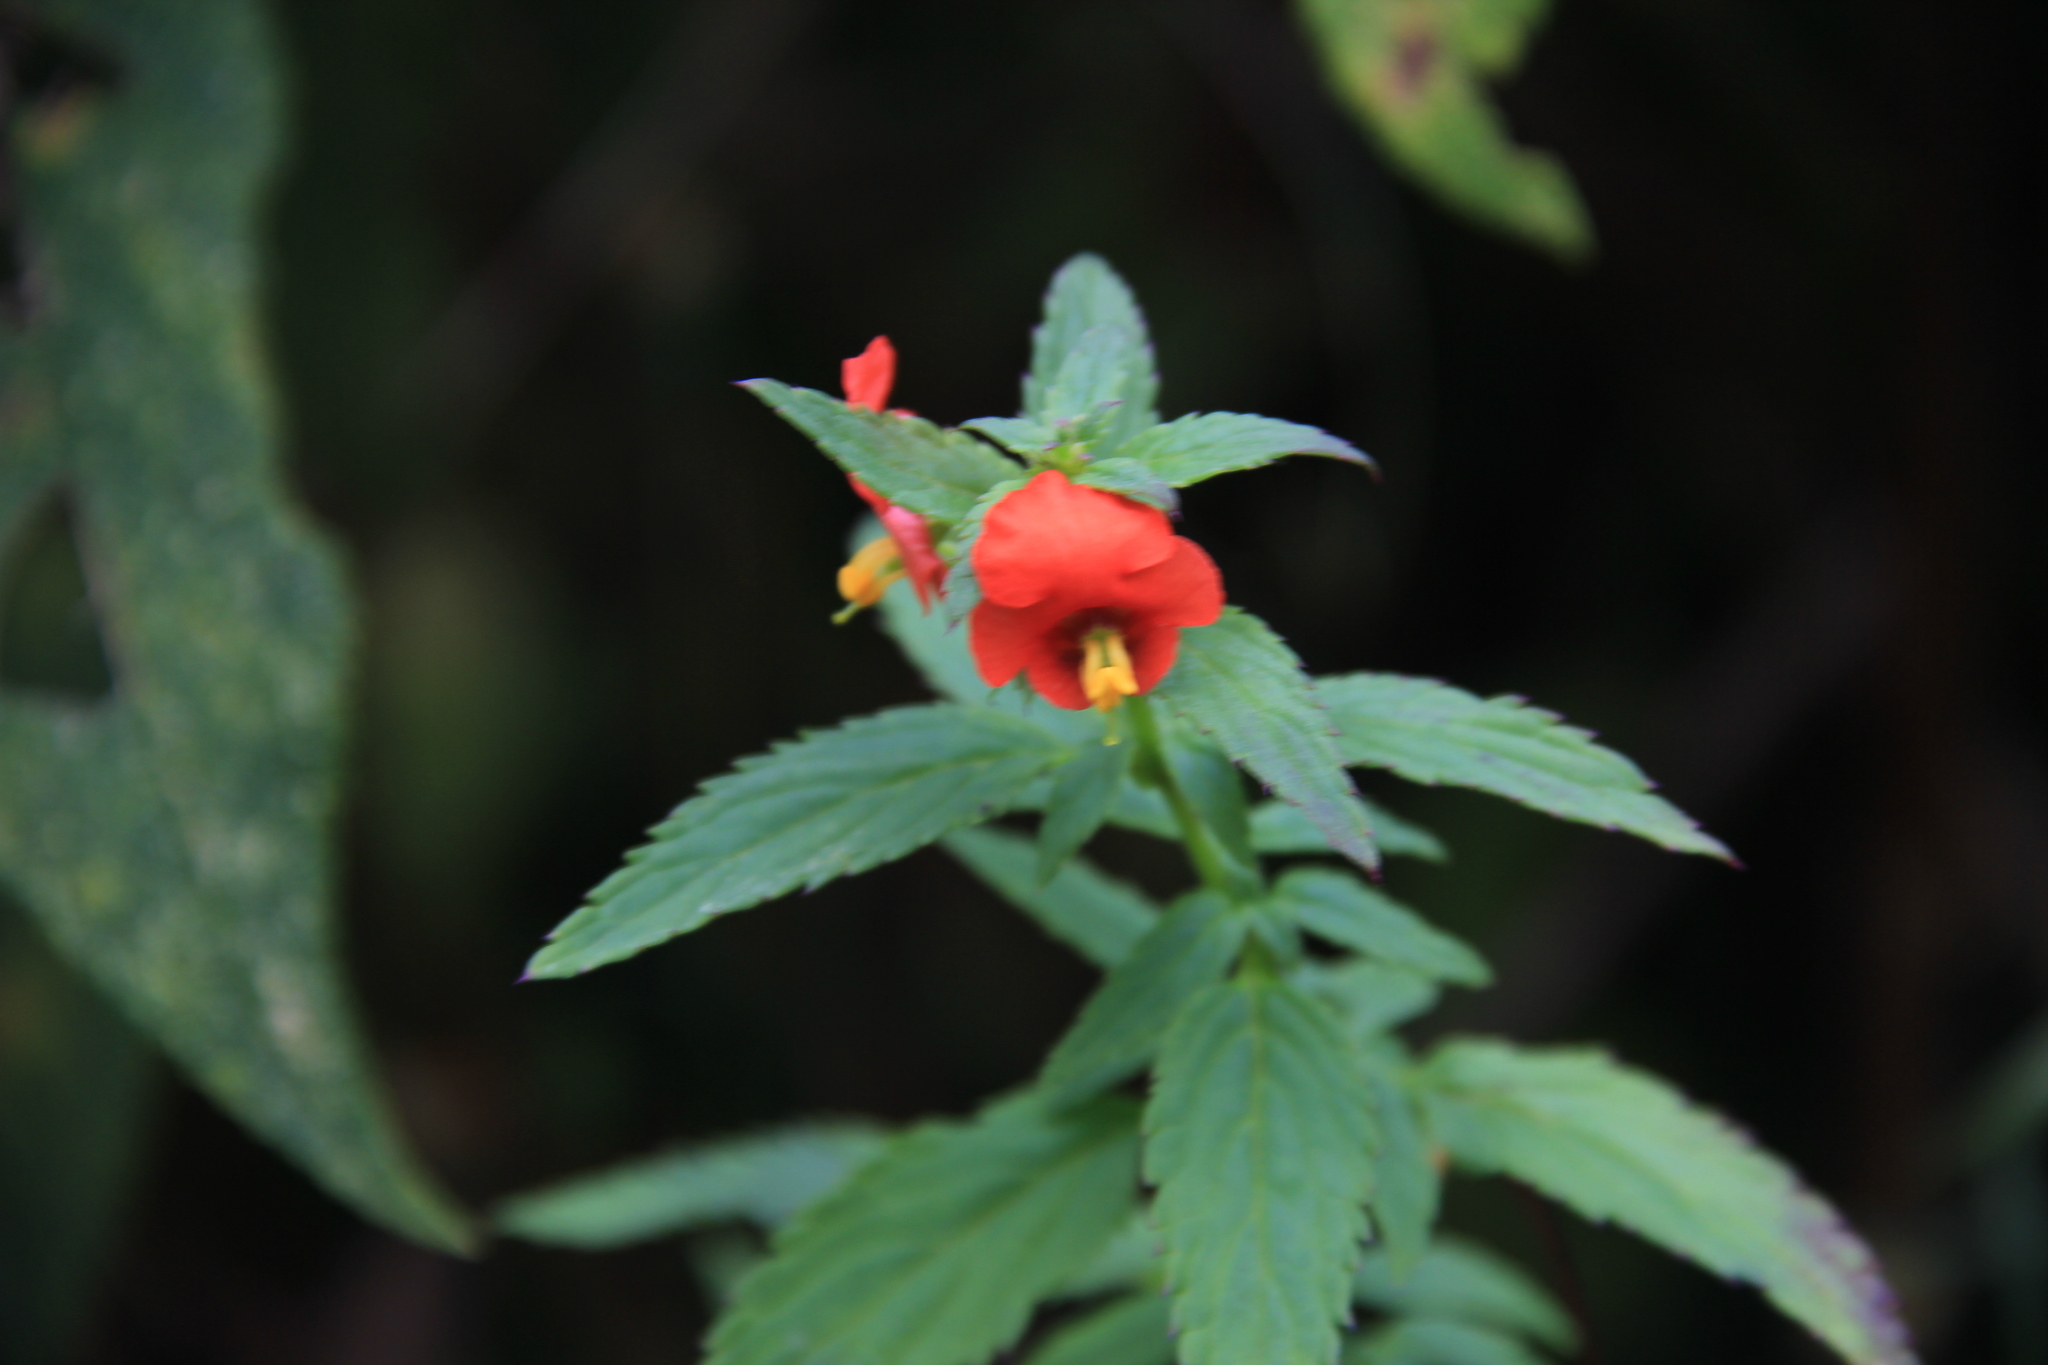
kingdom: Plantae
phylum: Tracheophyta
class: Magnoliopsida
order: Lamiales
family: Scrophulariaceae
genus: Alonsoa
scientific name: Alonsoa meridionalis
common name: Maskflower
